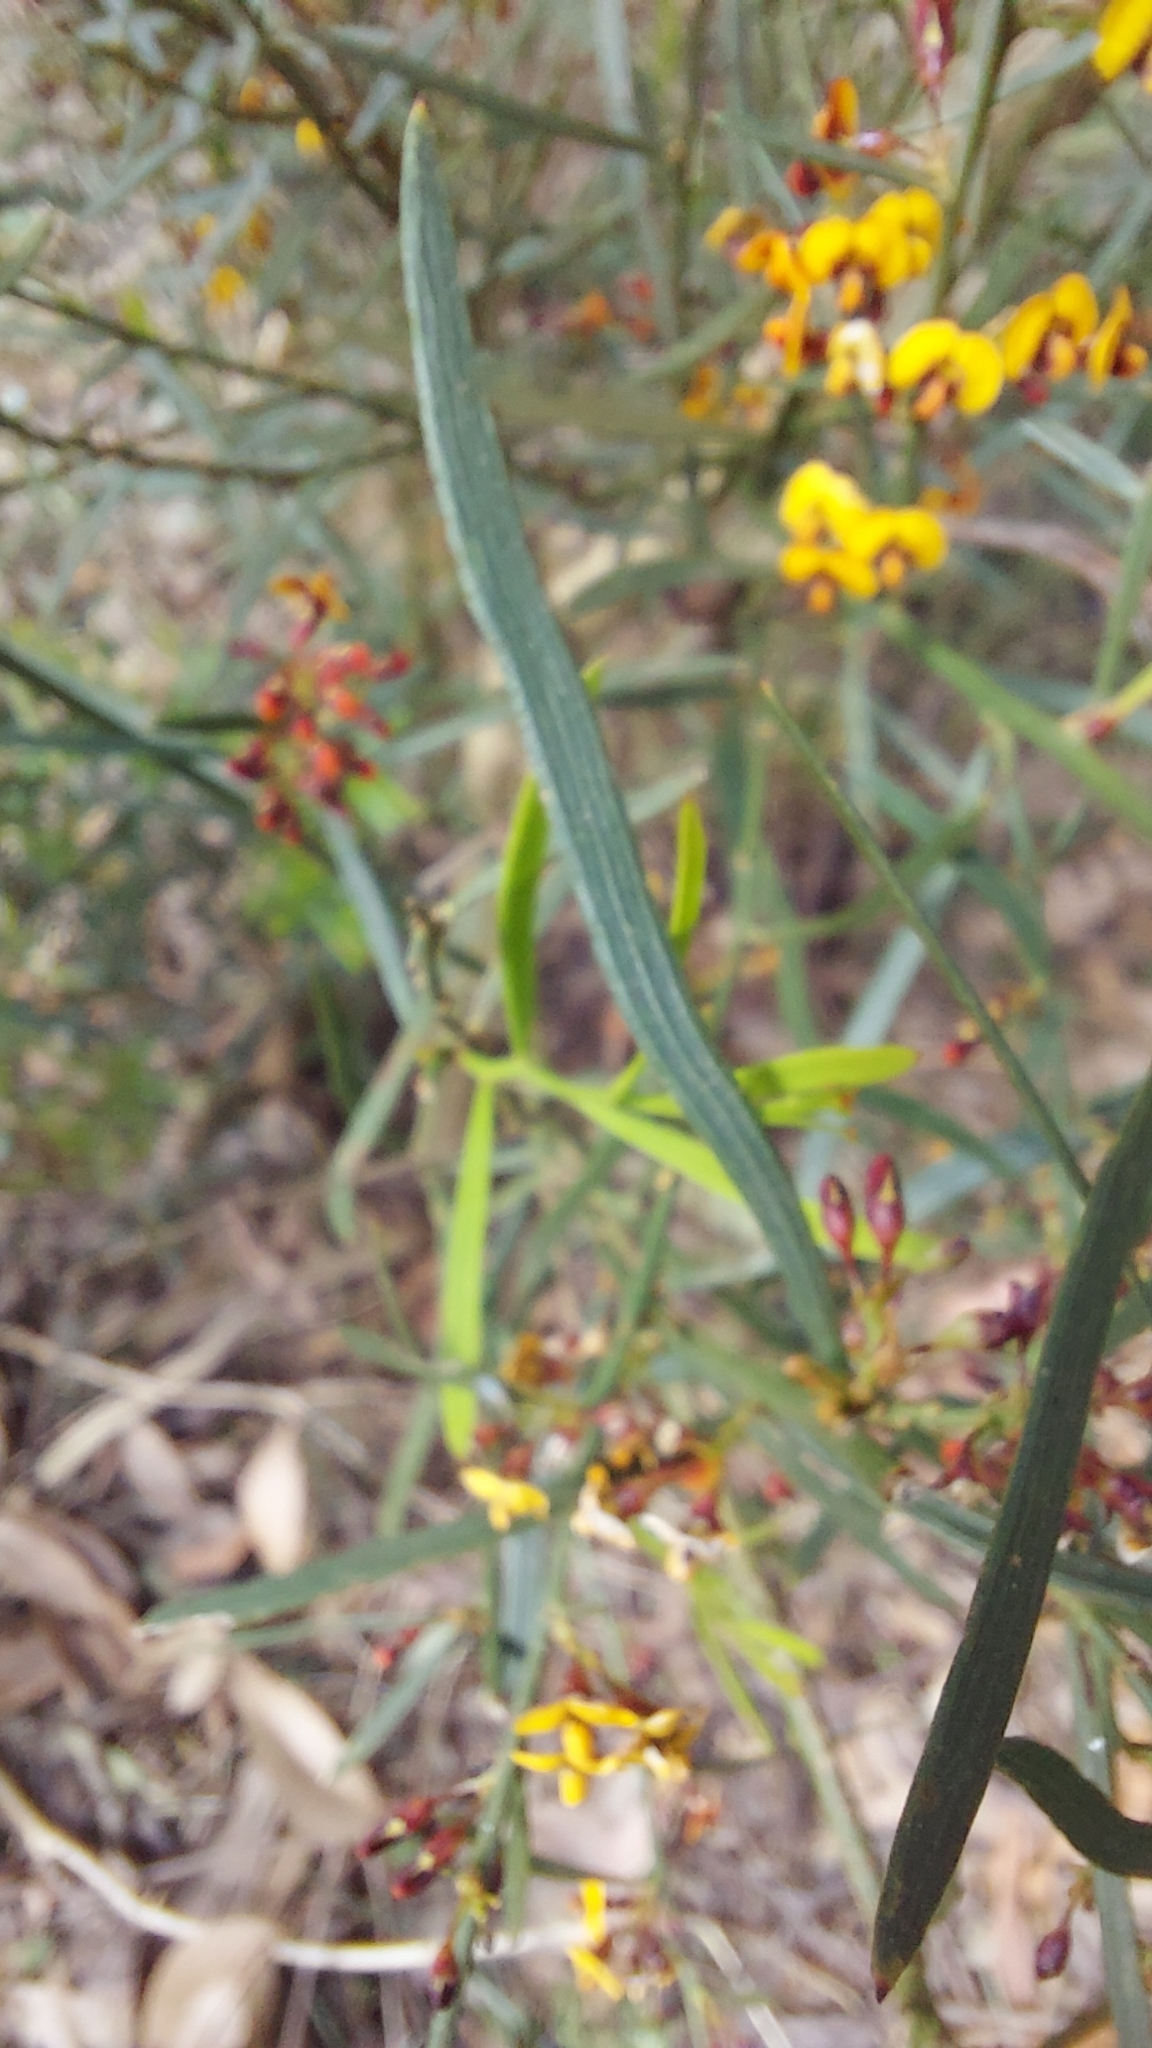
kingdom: Plantae
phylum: Tracheophyta
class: Magnoliopsida
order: Fabales
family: Fabaceae
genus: Daviesia
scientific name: Daviesia leptophylla
